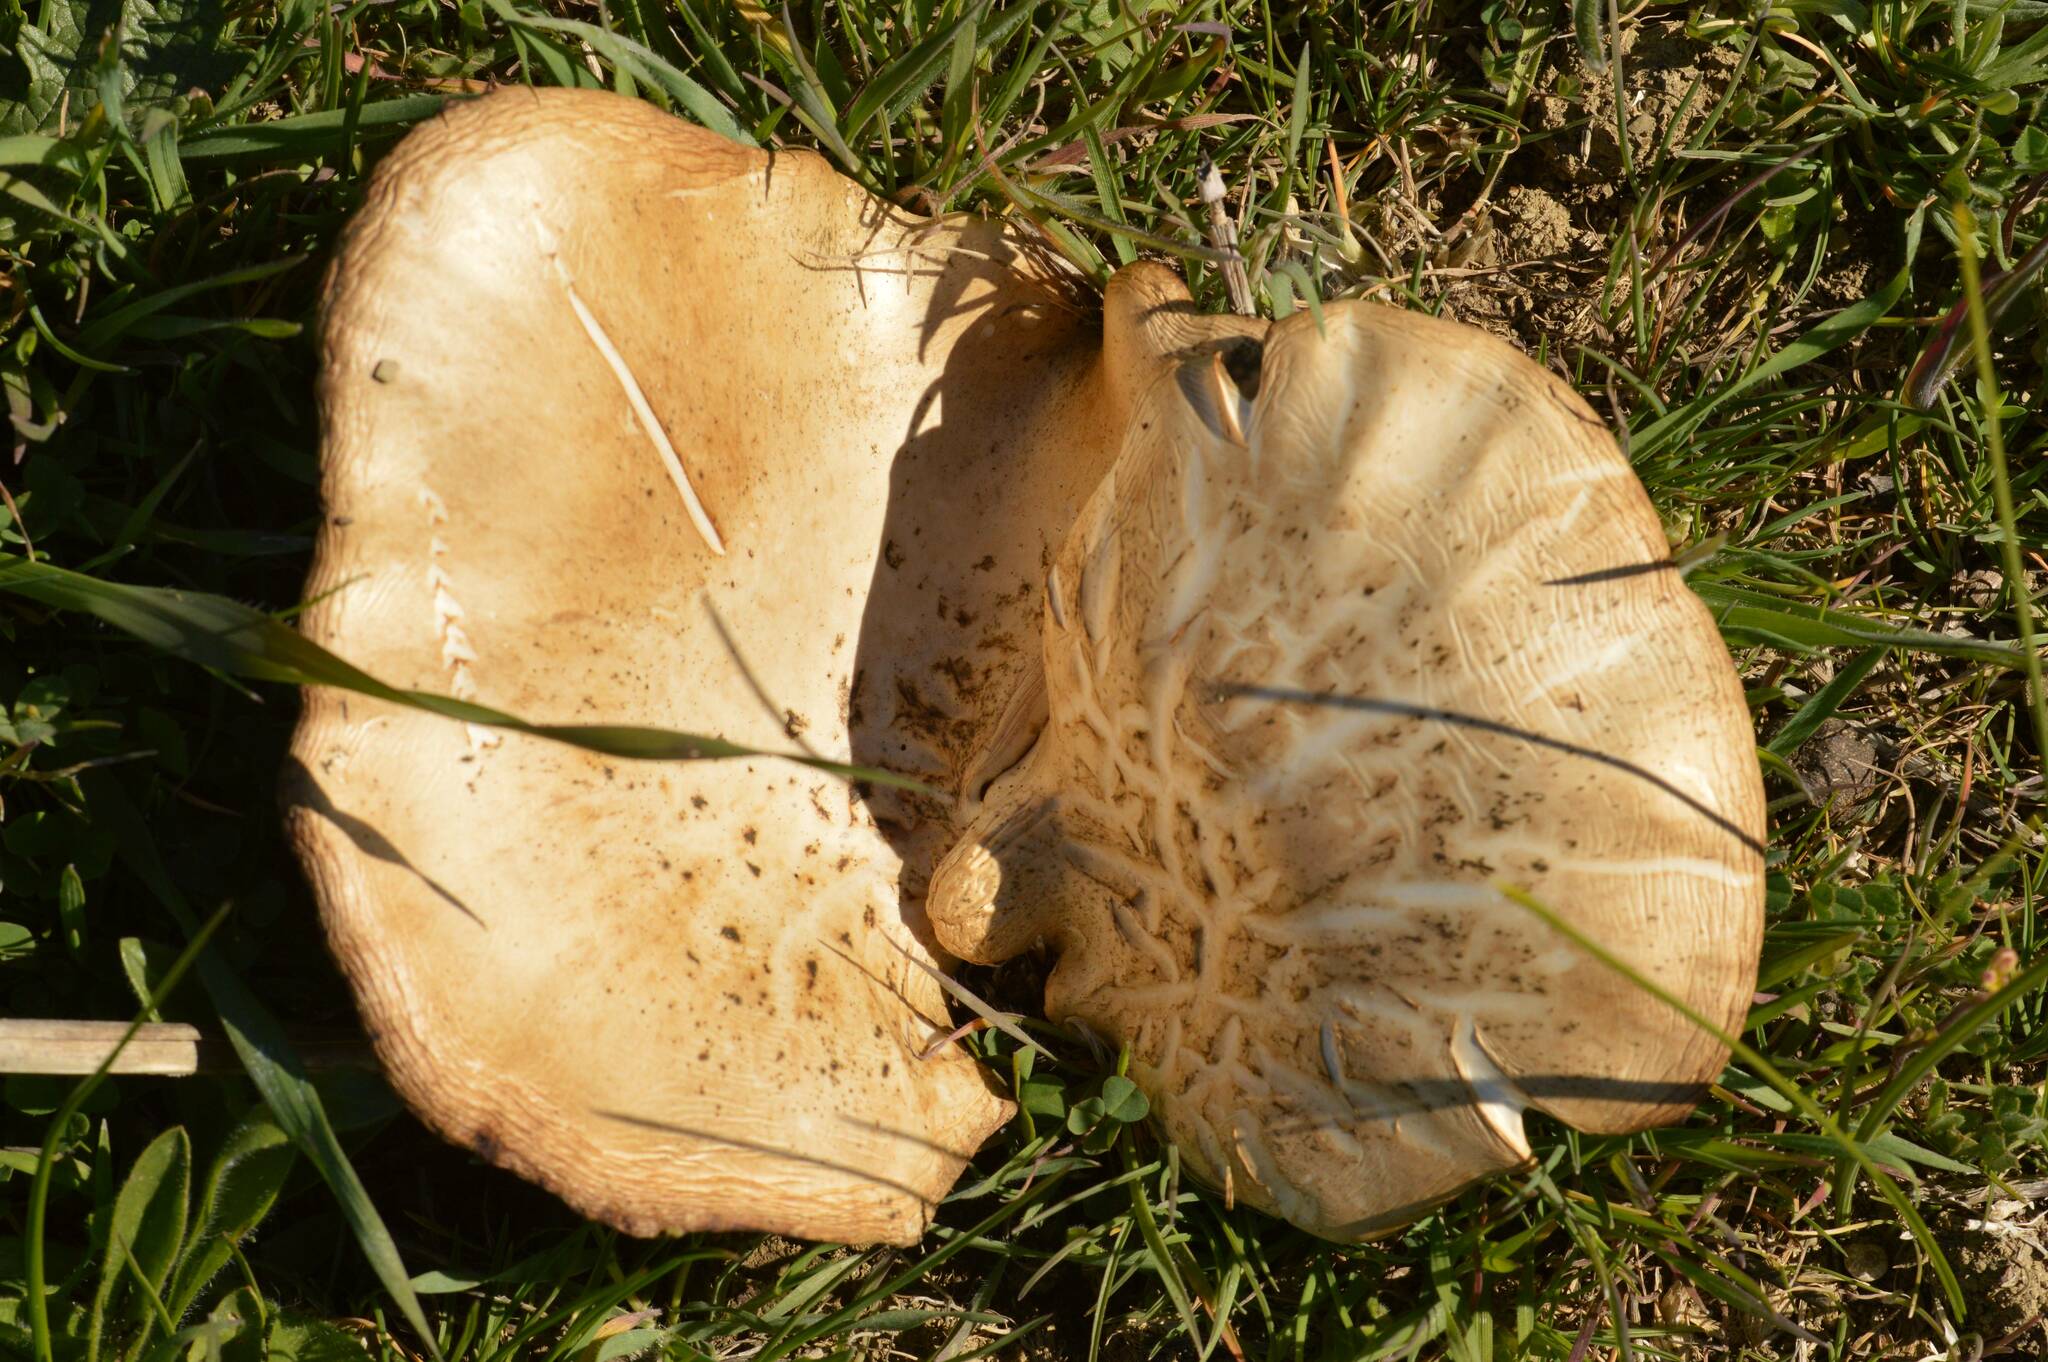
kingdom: Fungi
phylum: Basidiomycota
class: Agaricomycetes
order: Agaricales
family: Pleurotaceae
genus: Pleurotus
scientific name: Pleurotus eryngii
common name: King oyster
